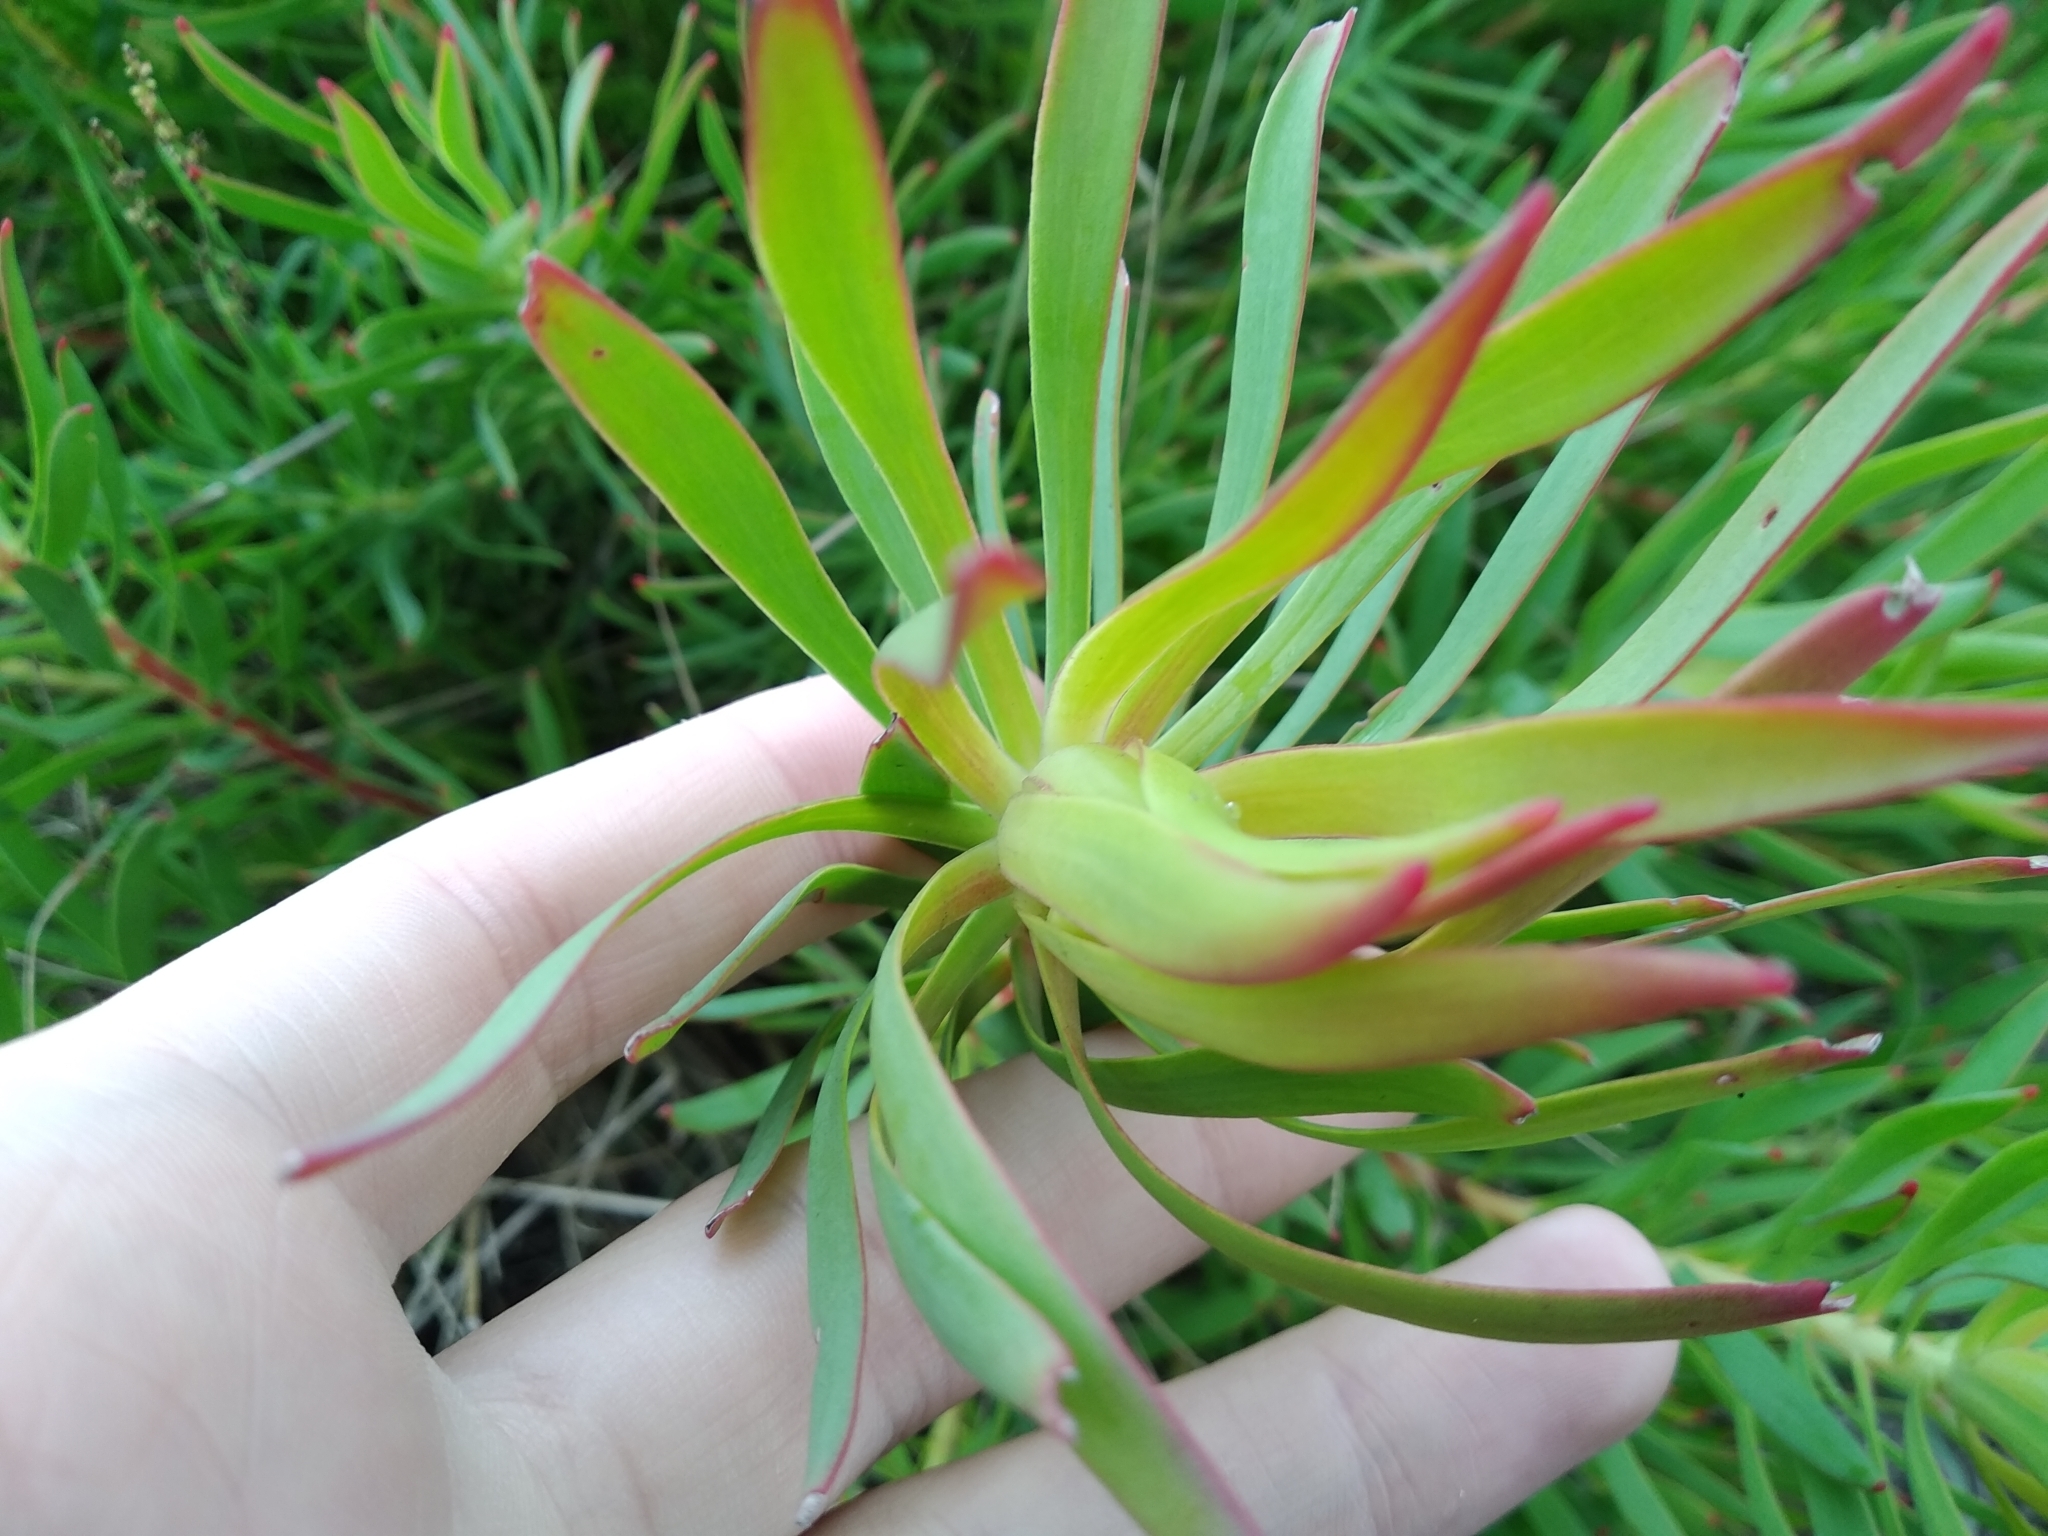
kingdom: Plantae
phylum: Tracheophyta
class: Magnoliopsida
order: Proteales
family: Proteaceae
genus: Leucadendron
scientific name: Leucadendron salignum
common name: Common sunshine conebush
